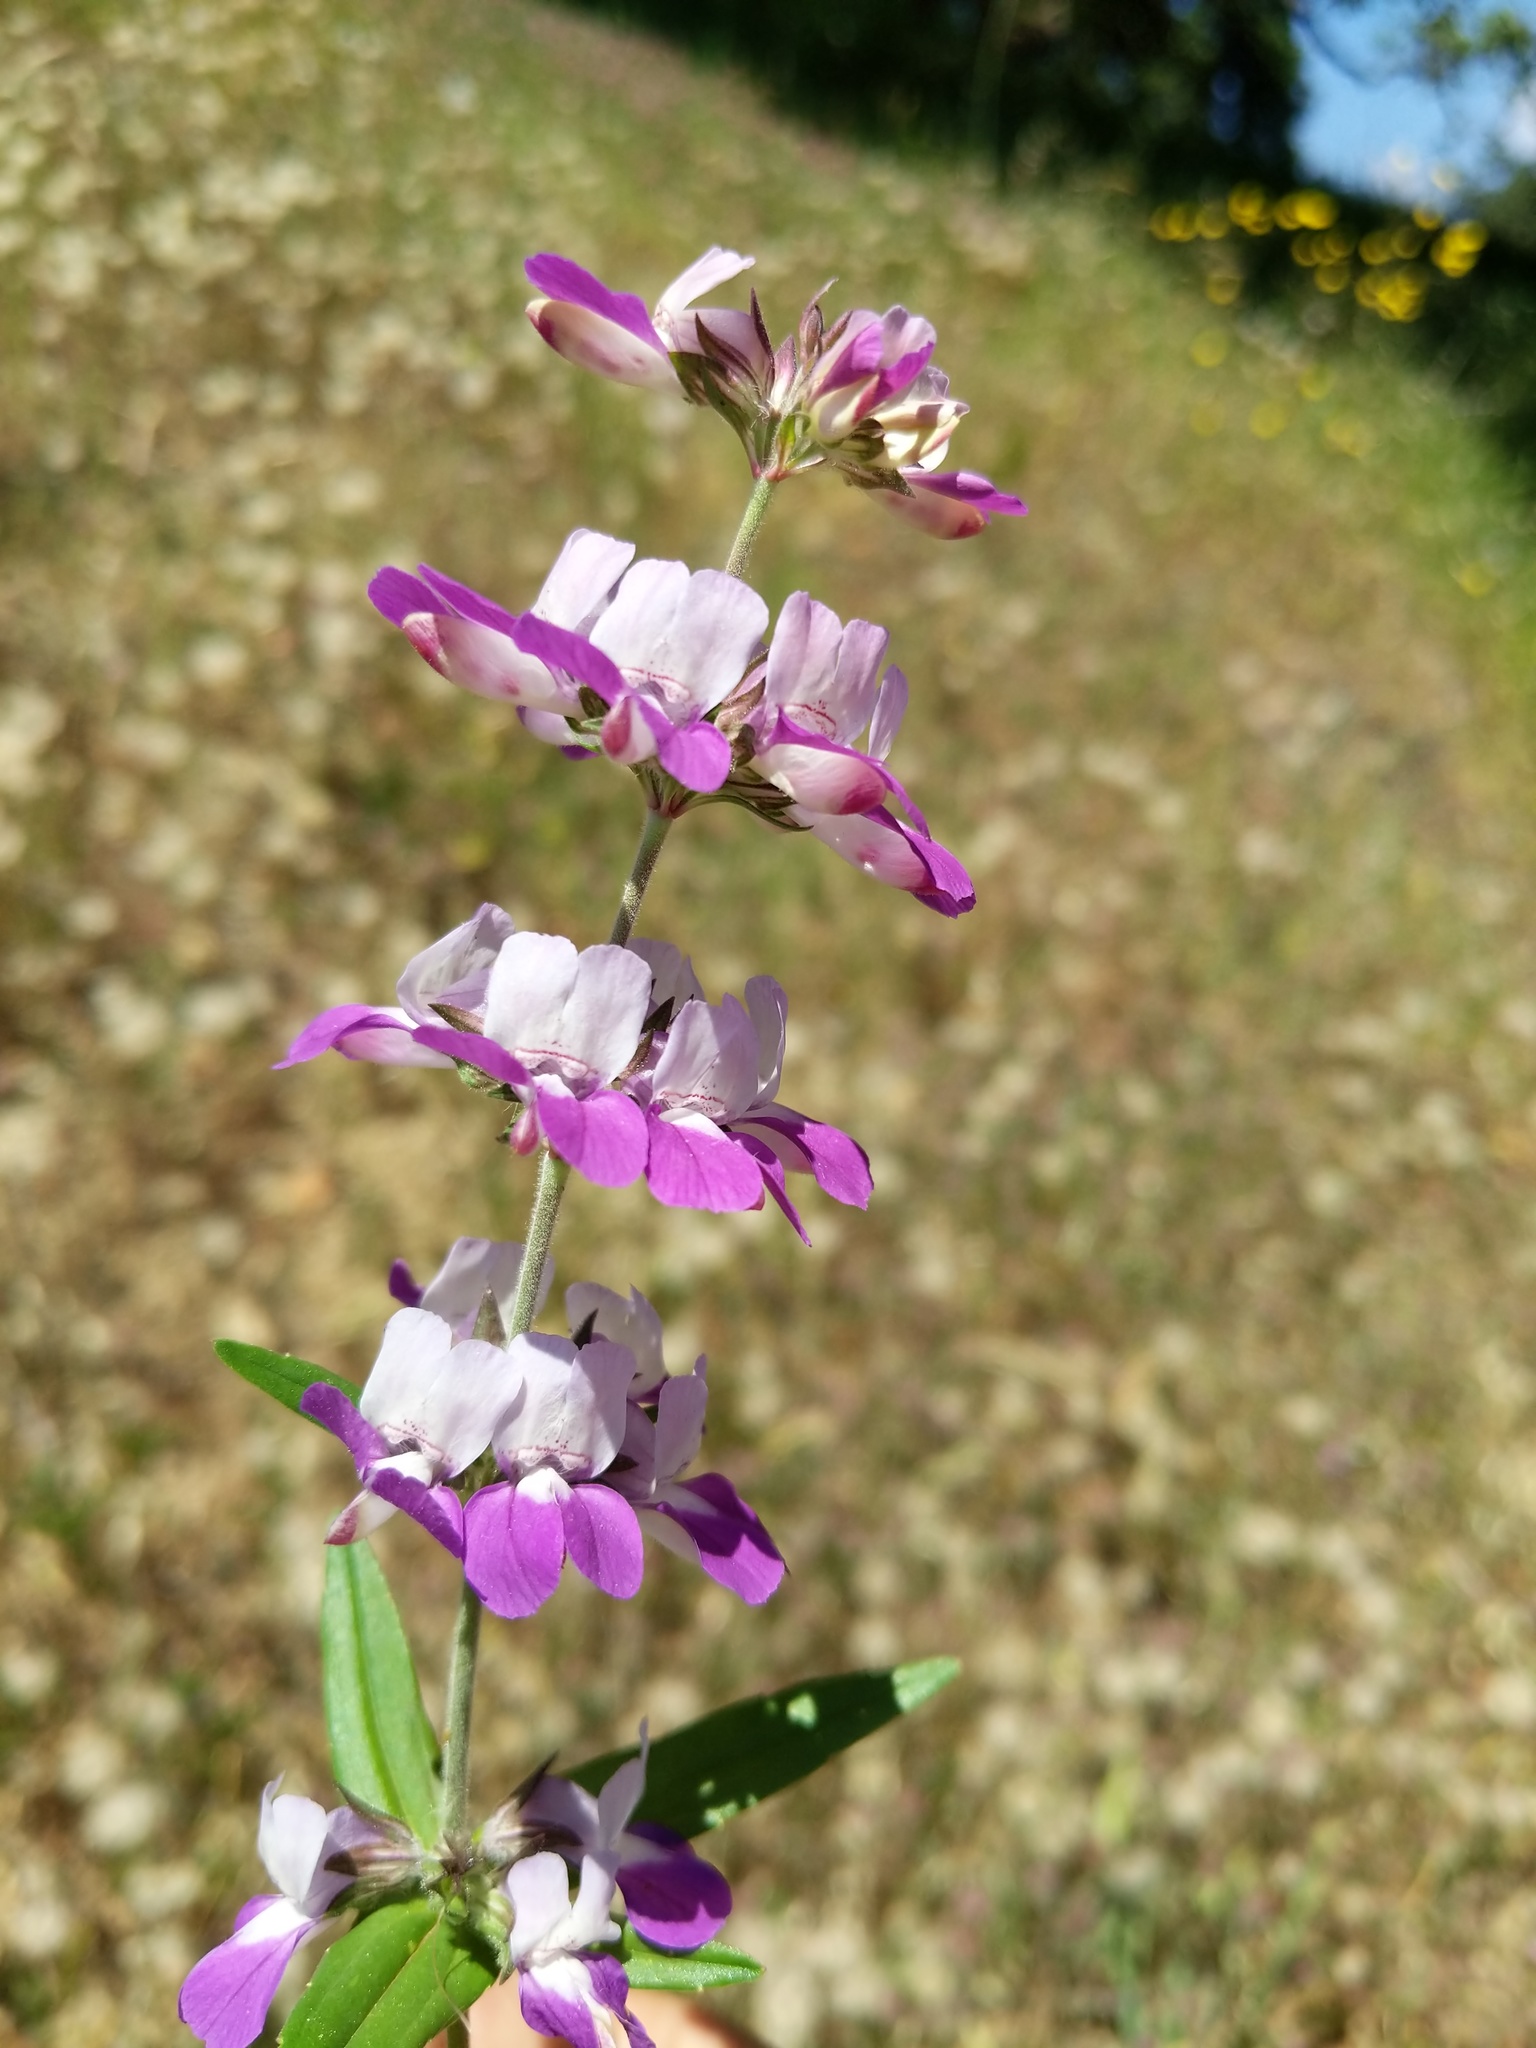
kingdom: Plantae
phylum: Tracheophyta
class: Magnoliopsida
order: Lamiales
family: Plantaginaceae
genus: Collinsia
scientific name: Collinsia heterophylla
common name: Chinese-houses
